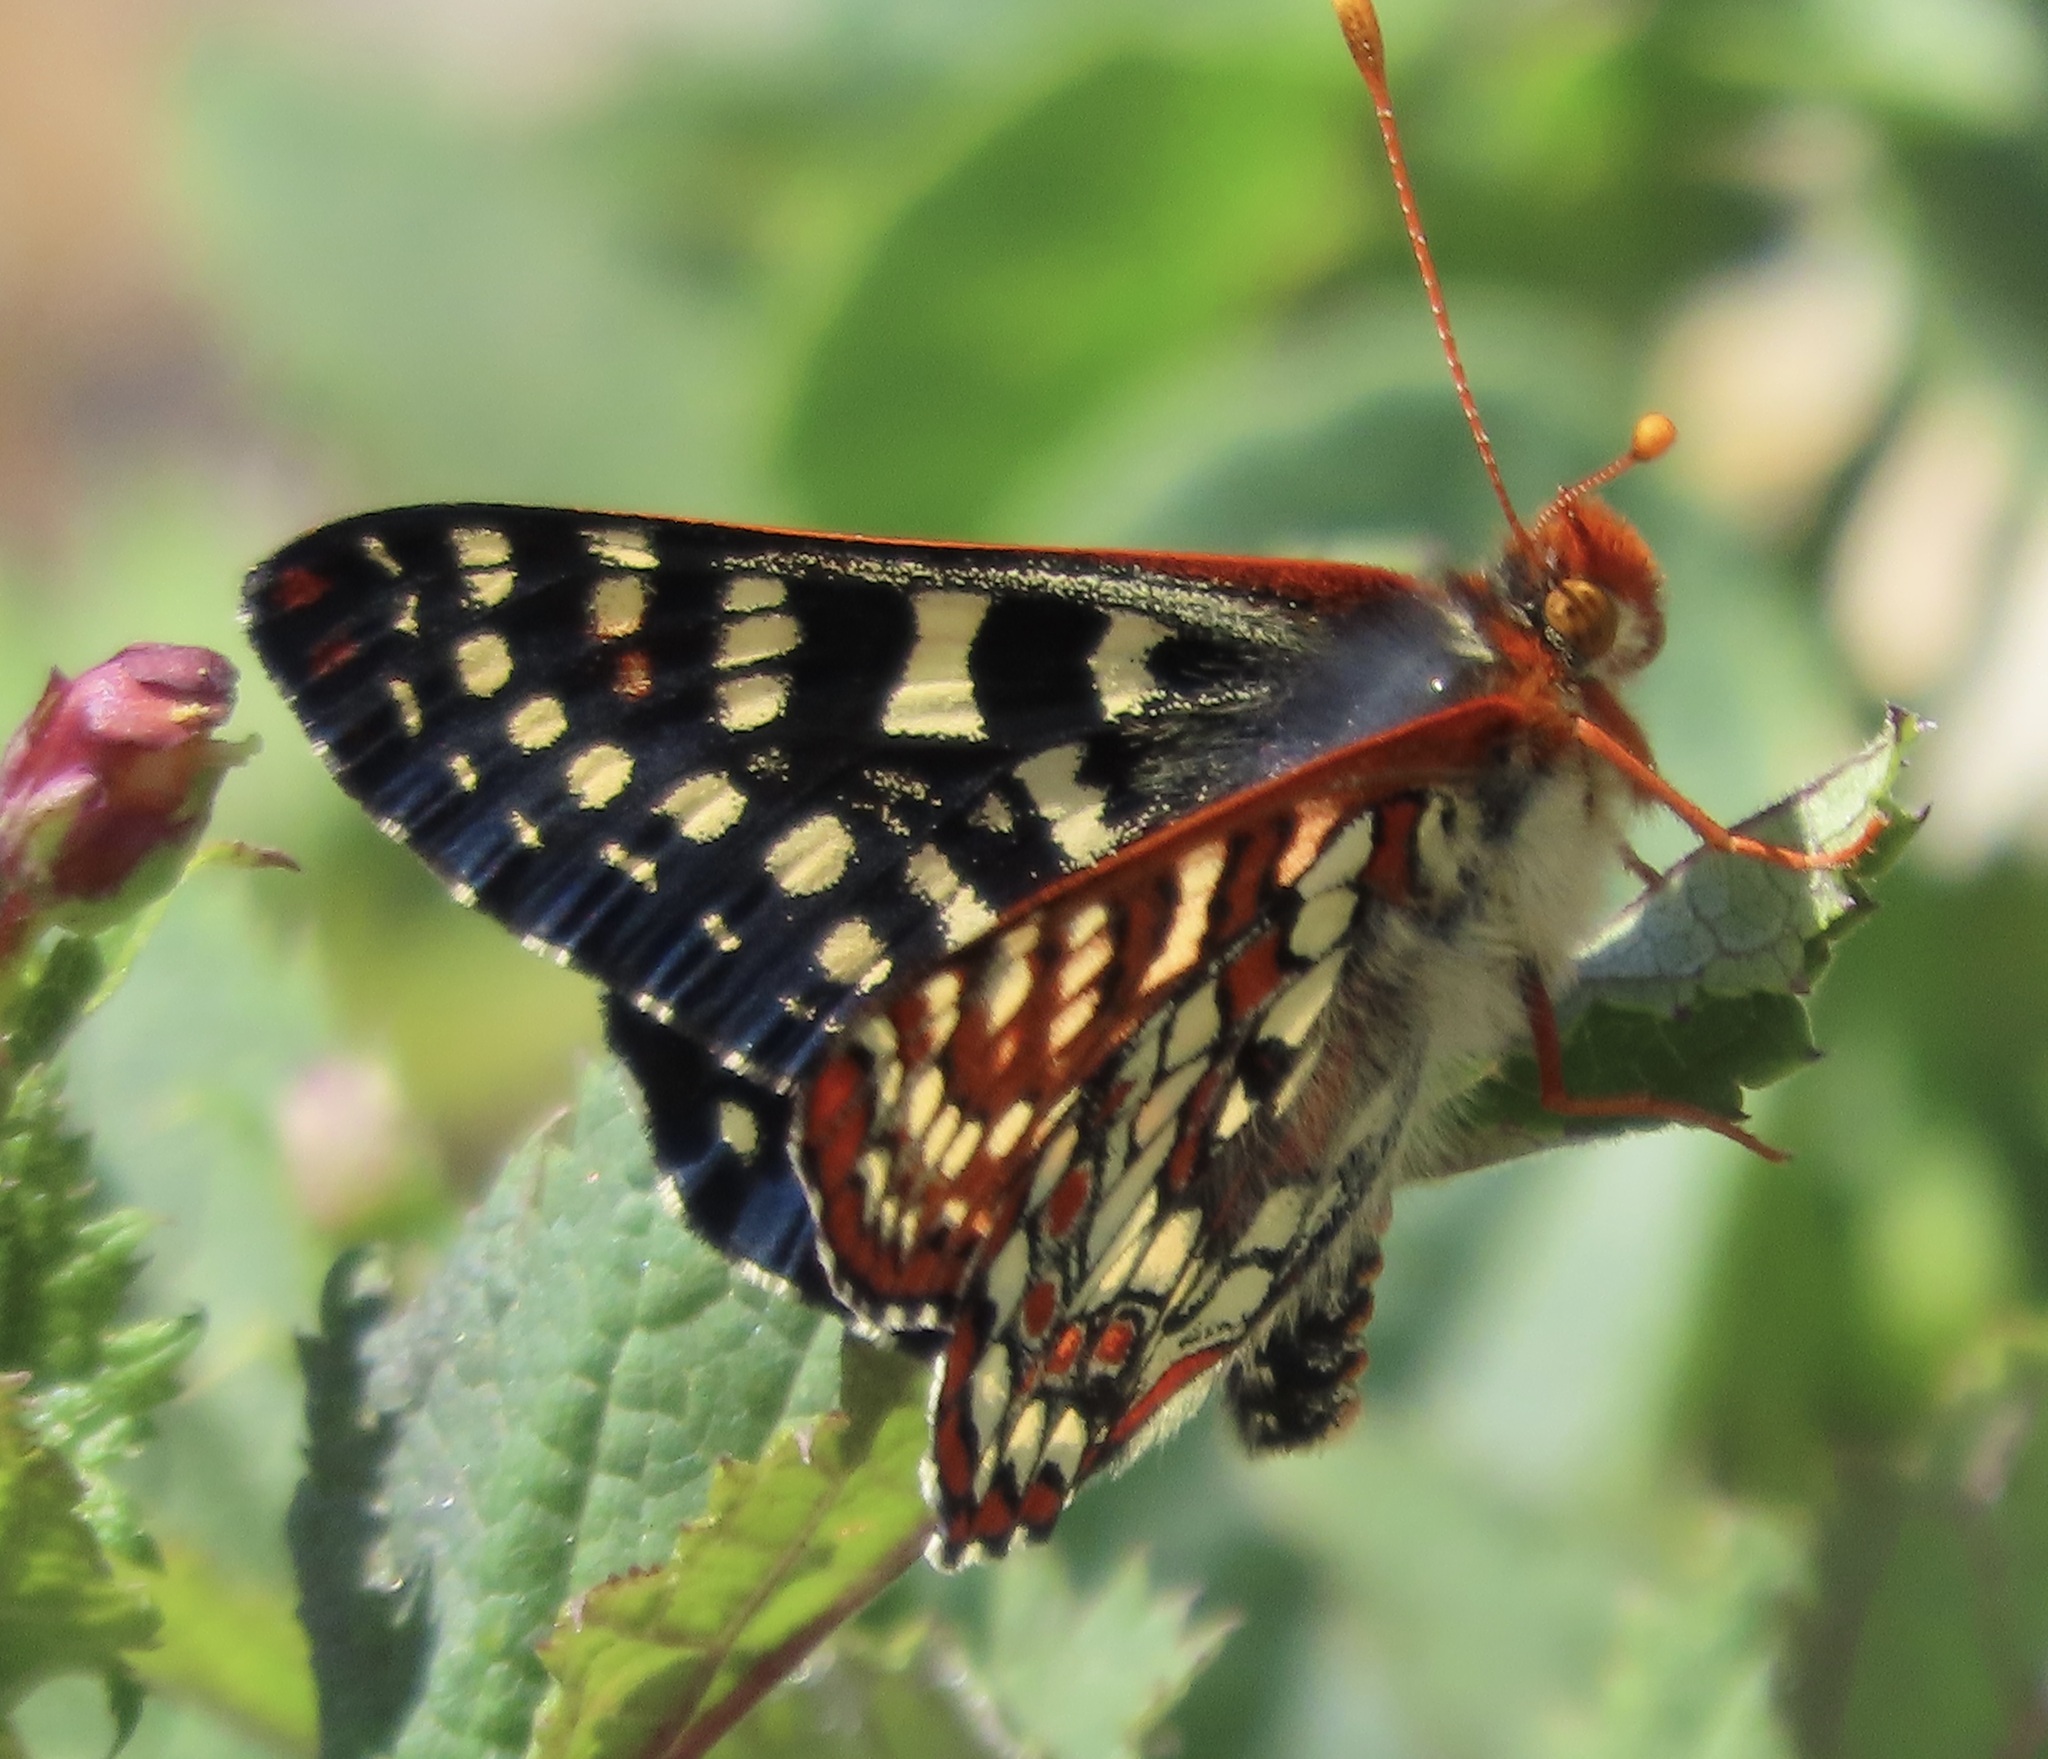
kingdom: Animalia
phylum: Arthropoda
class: Insecta
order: Lepidoptera
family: Nymphalidae
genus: Occidryas
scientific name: Occidryas chalcedona
